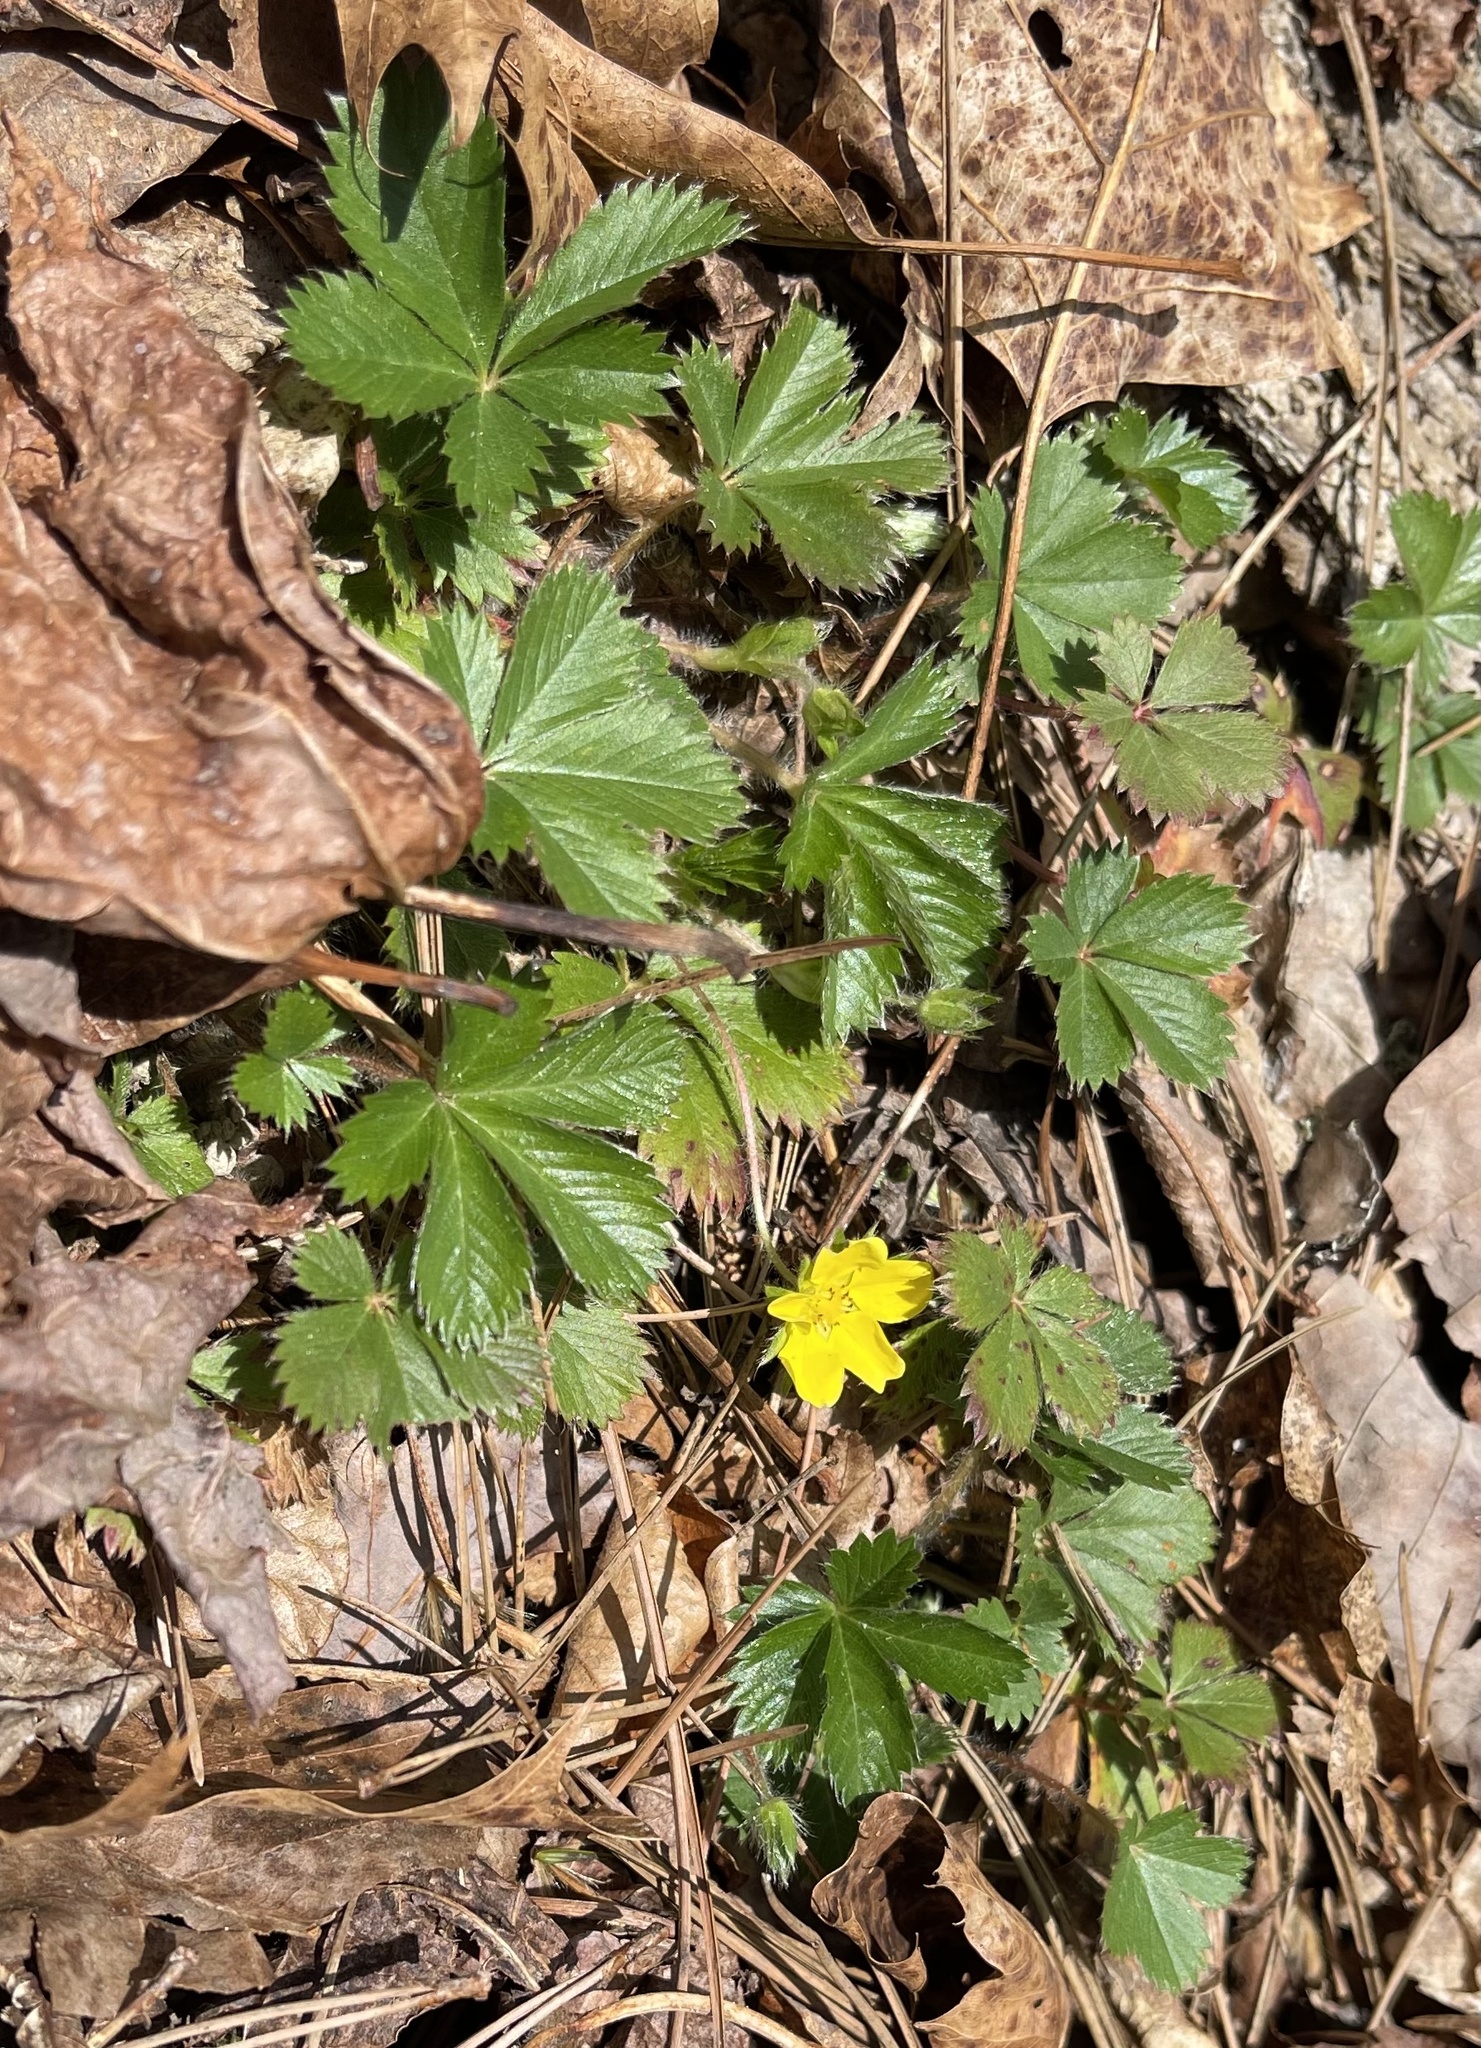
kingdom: Plantae
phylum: Tracheophyta
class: Magnoliopsida
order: Rosales
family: Rosaceae
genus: Potentilla
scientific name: Potentilla canadensis
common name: Canada cinquefoil
